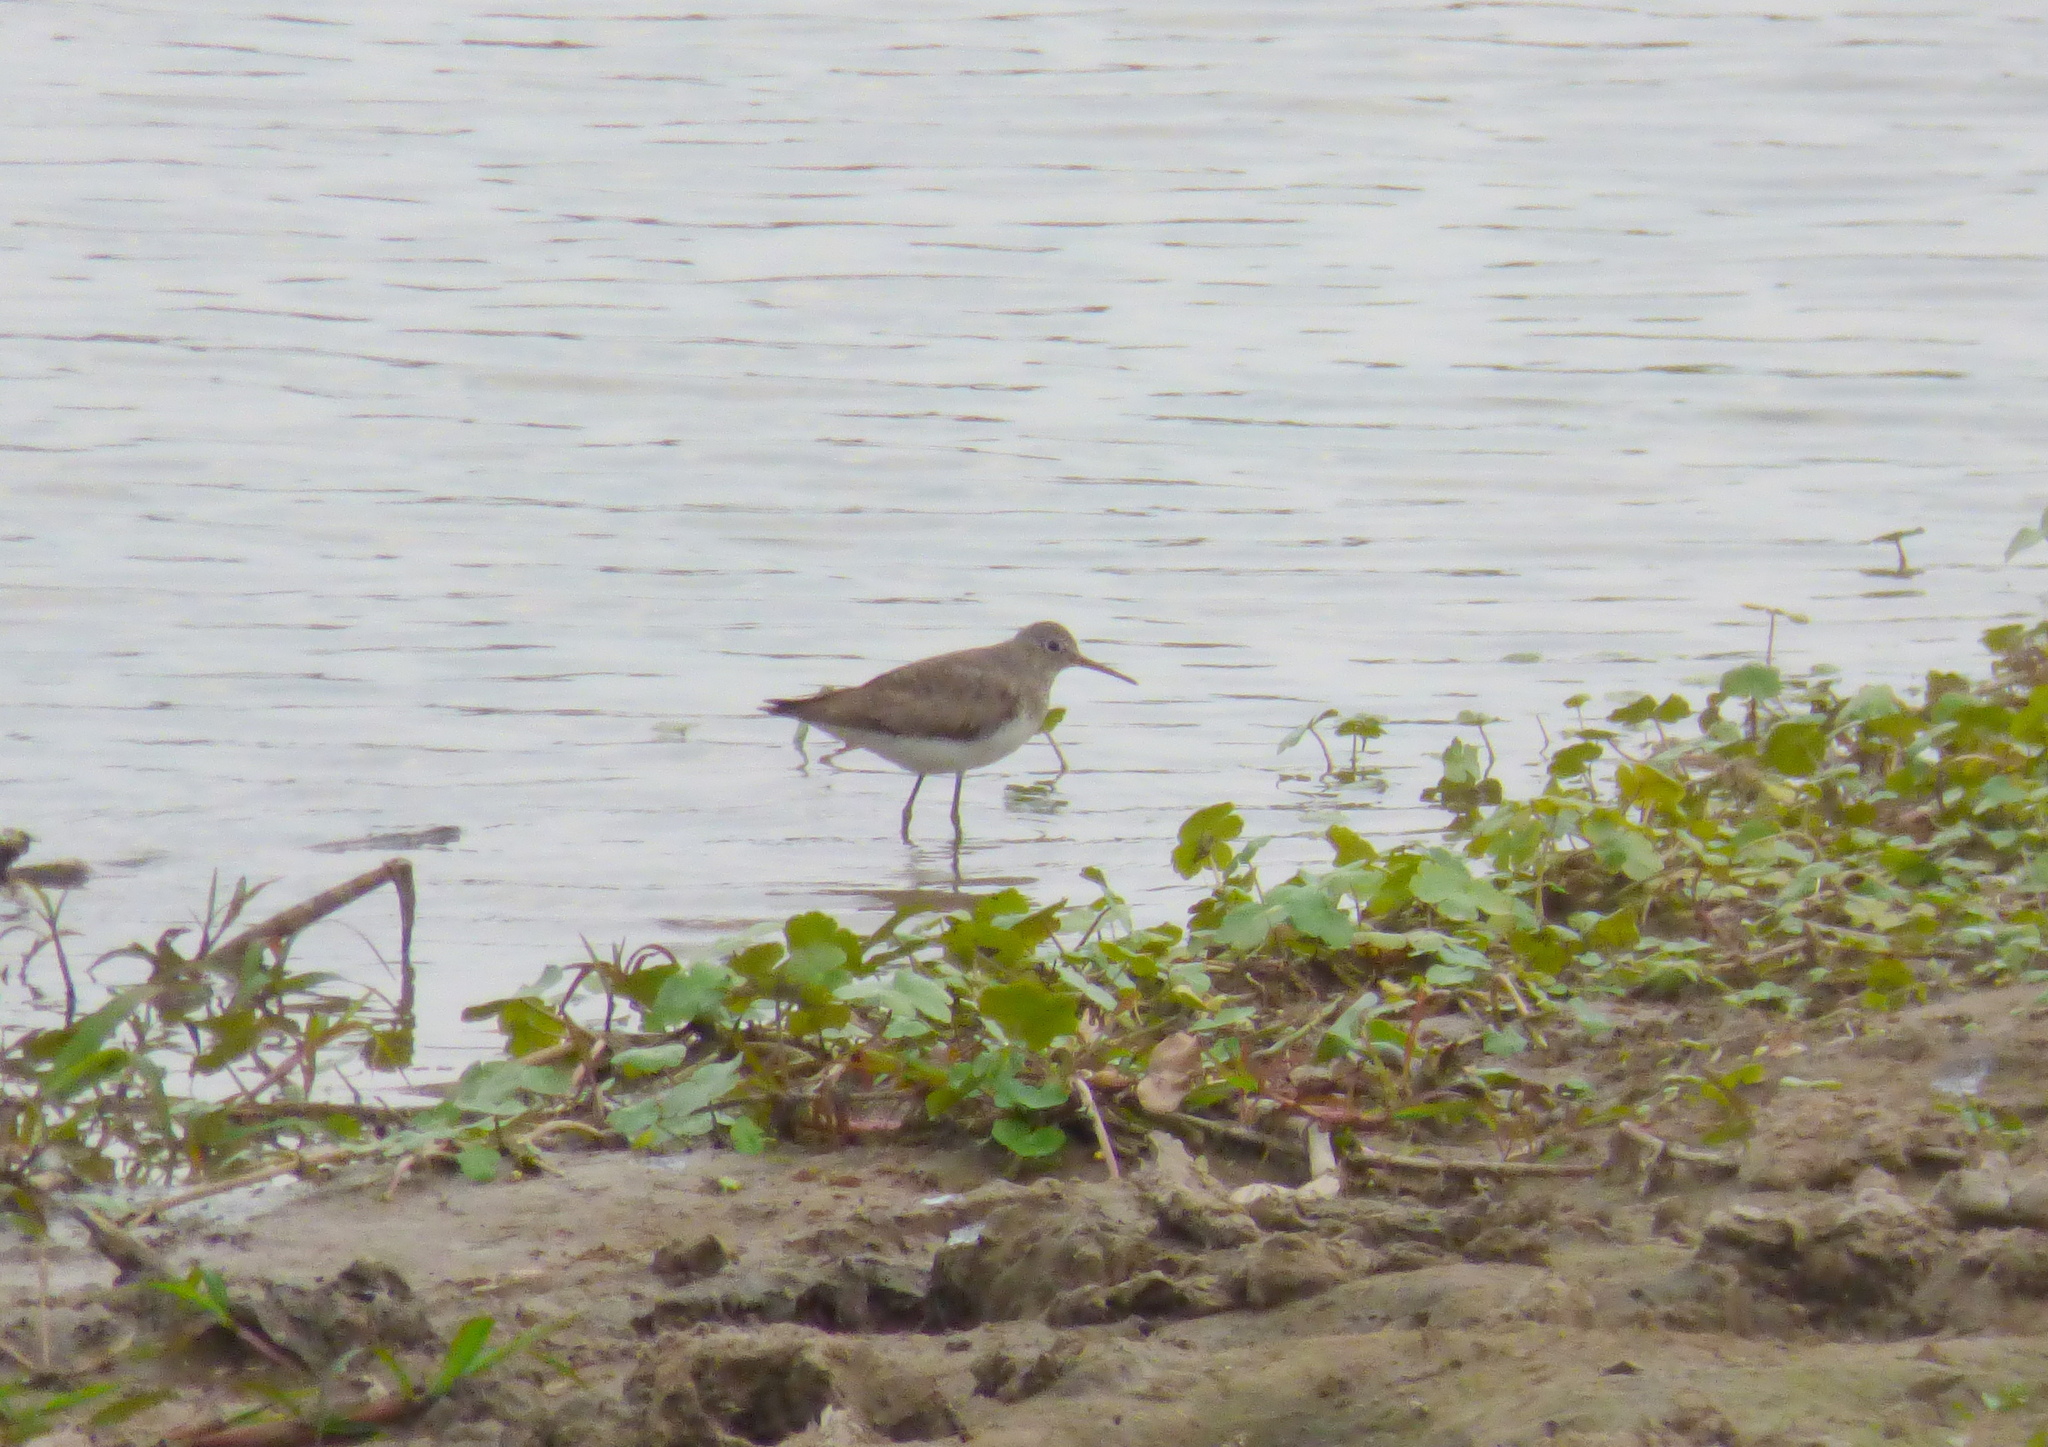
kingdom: Animalia
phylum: Chordata
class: Aves
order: Charadriiformes
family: Scolopacidae
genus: Tringa
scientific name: Tringa solitaria
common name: Solitary sandpiper
